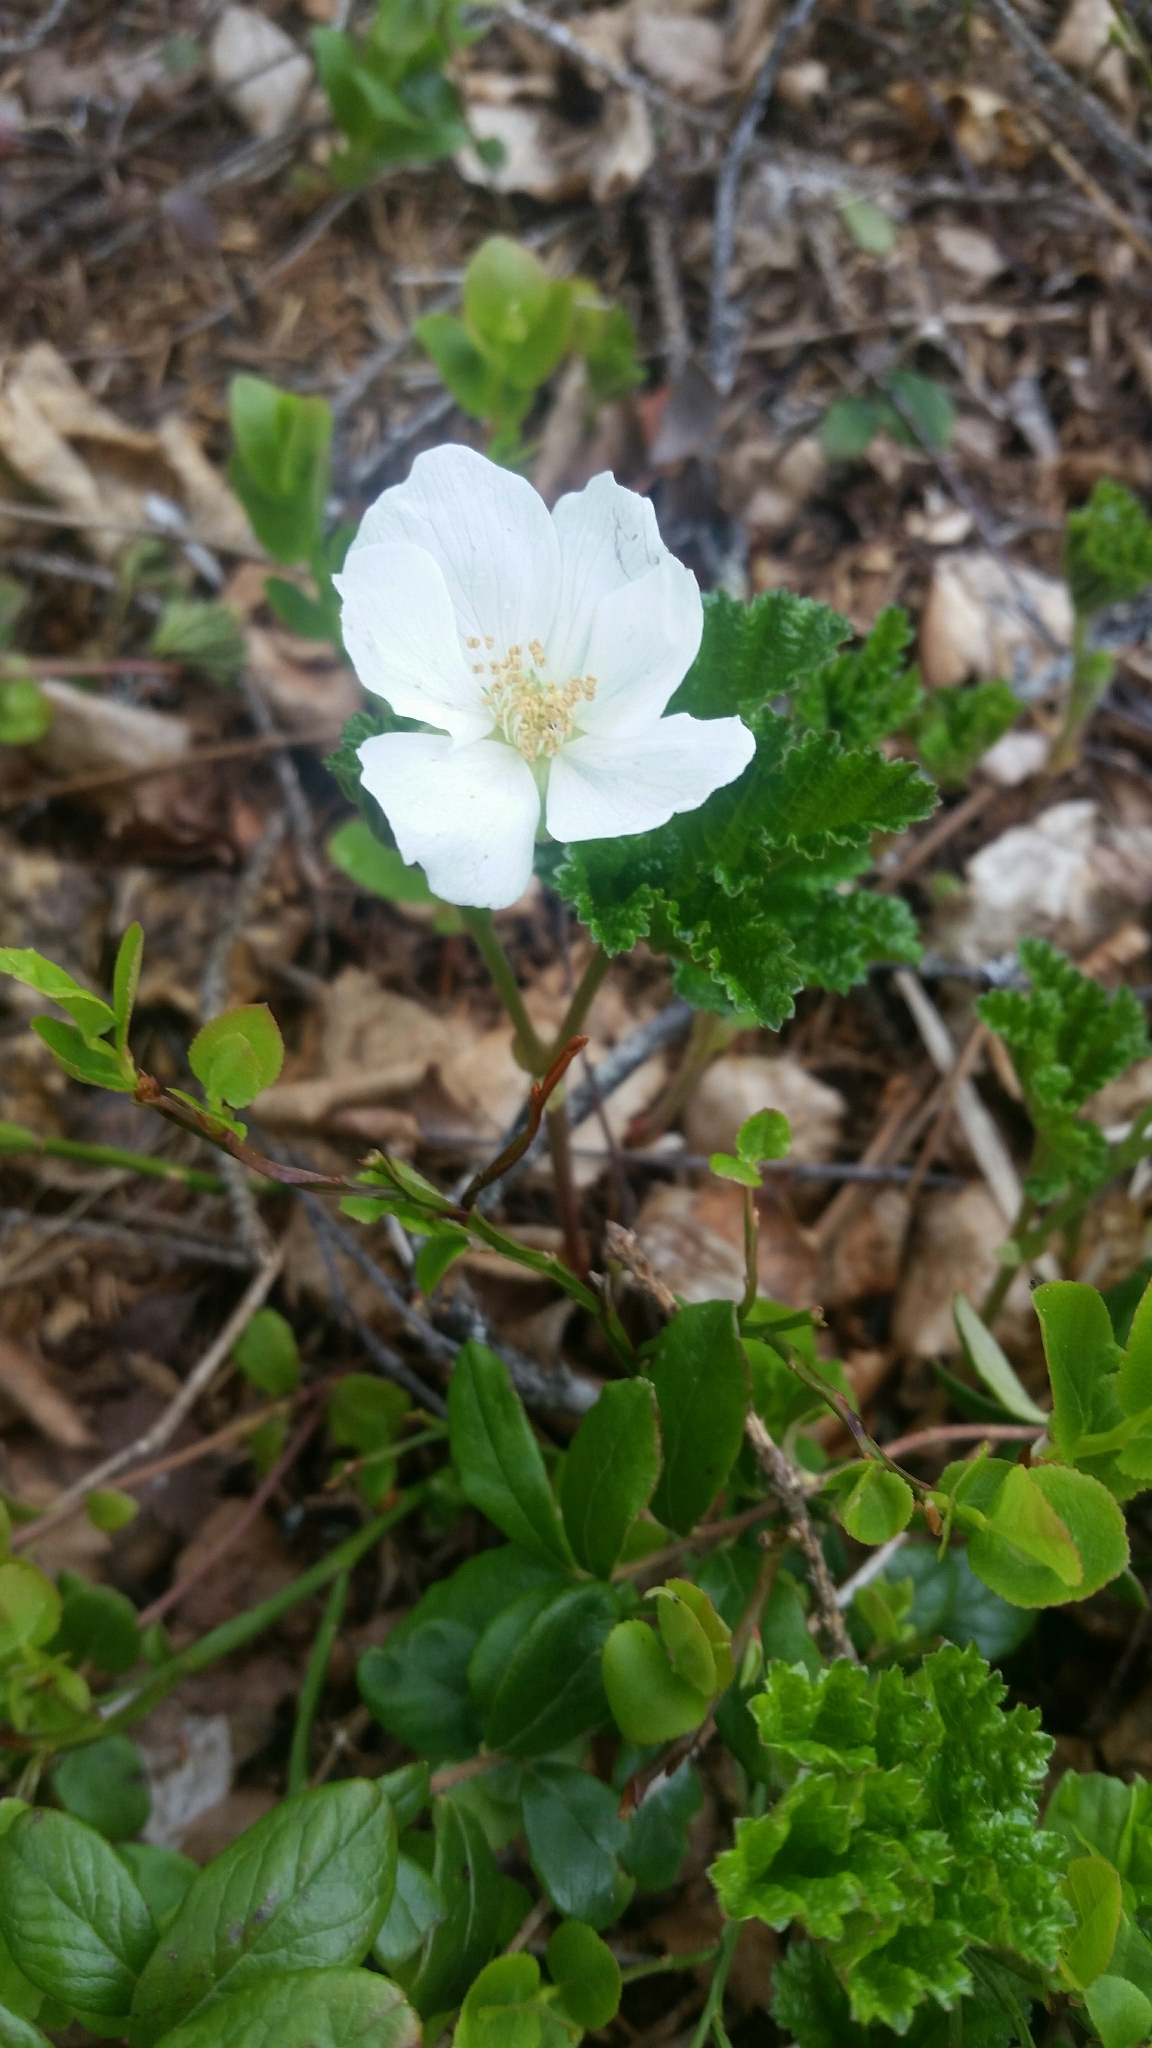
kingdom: Plantae
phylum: Tracheophyta
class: Magnoliopsida
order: Rosales
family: Rosaceae
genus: Rubus
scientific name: Rubus chamaemorus
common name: Cloudberry
